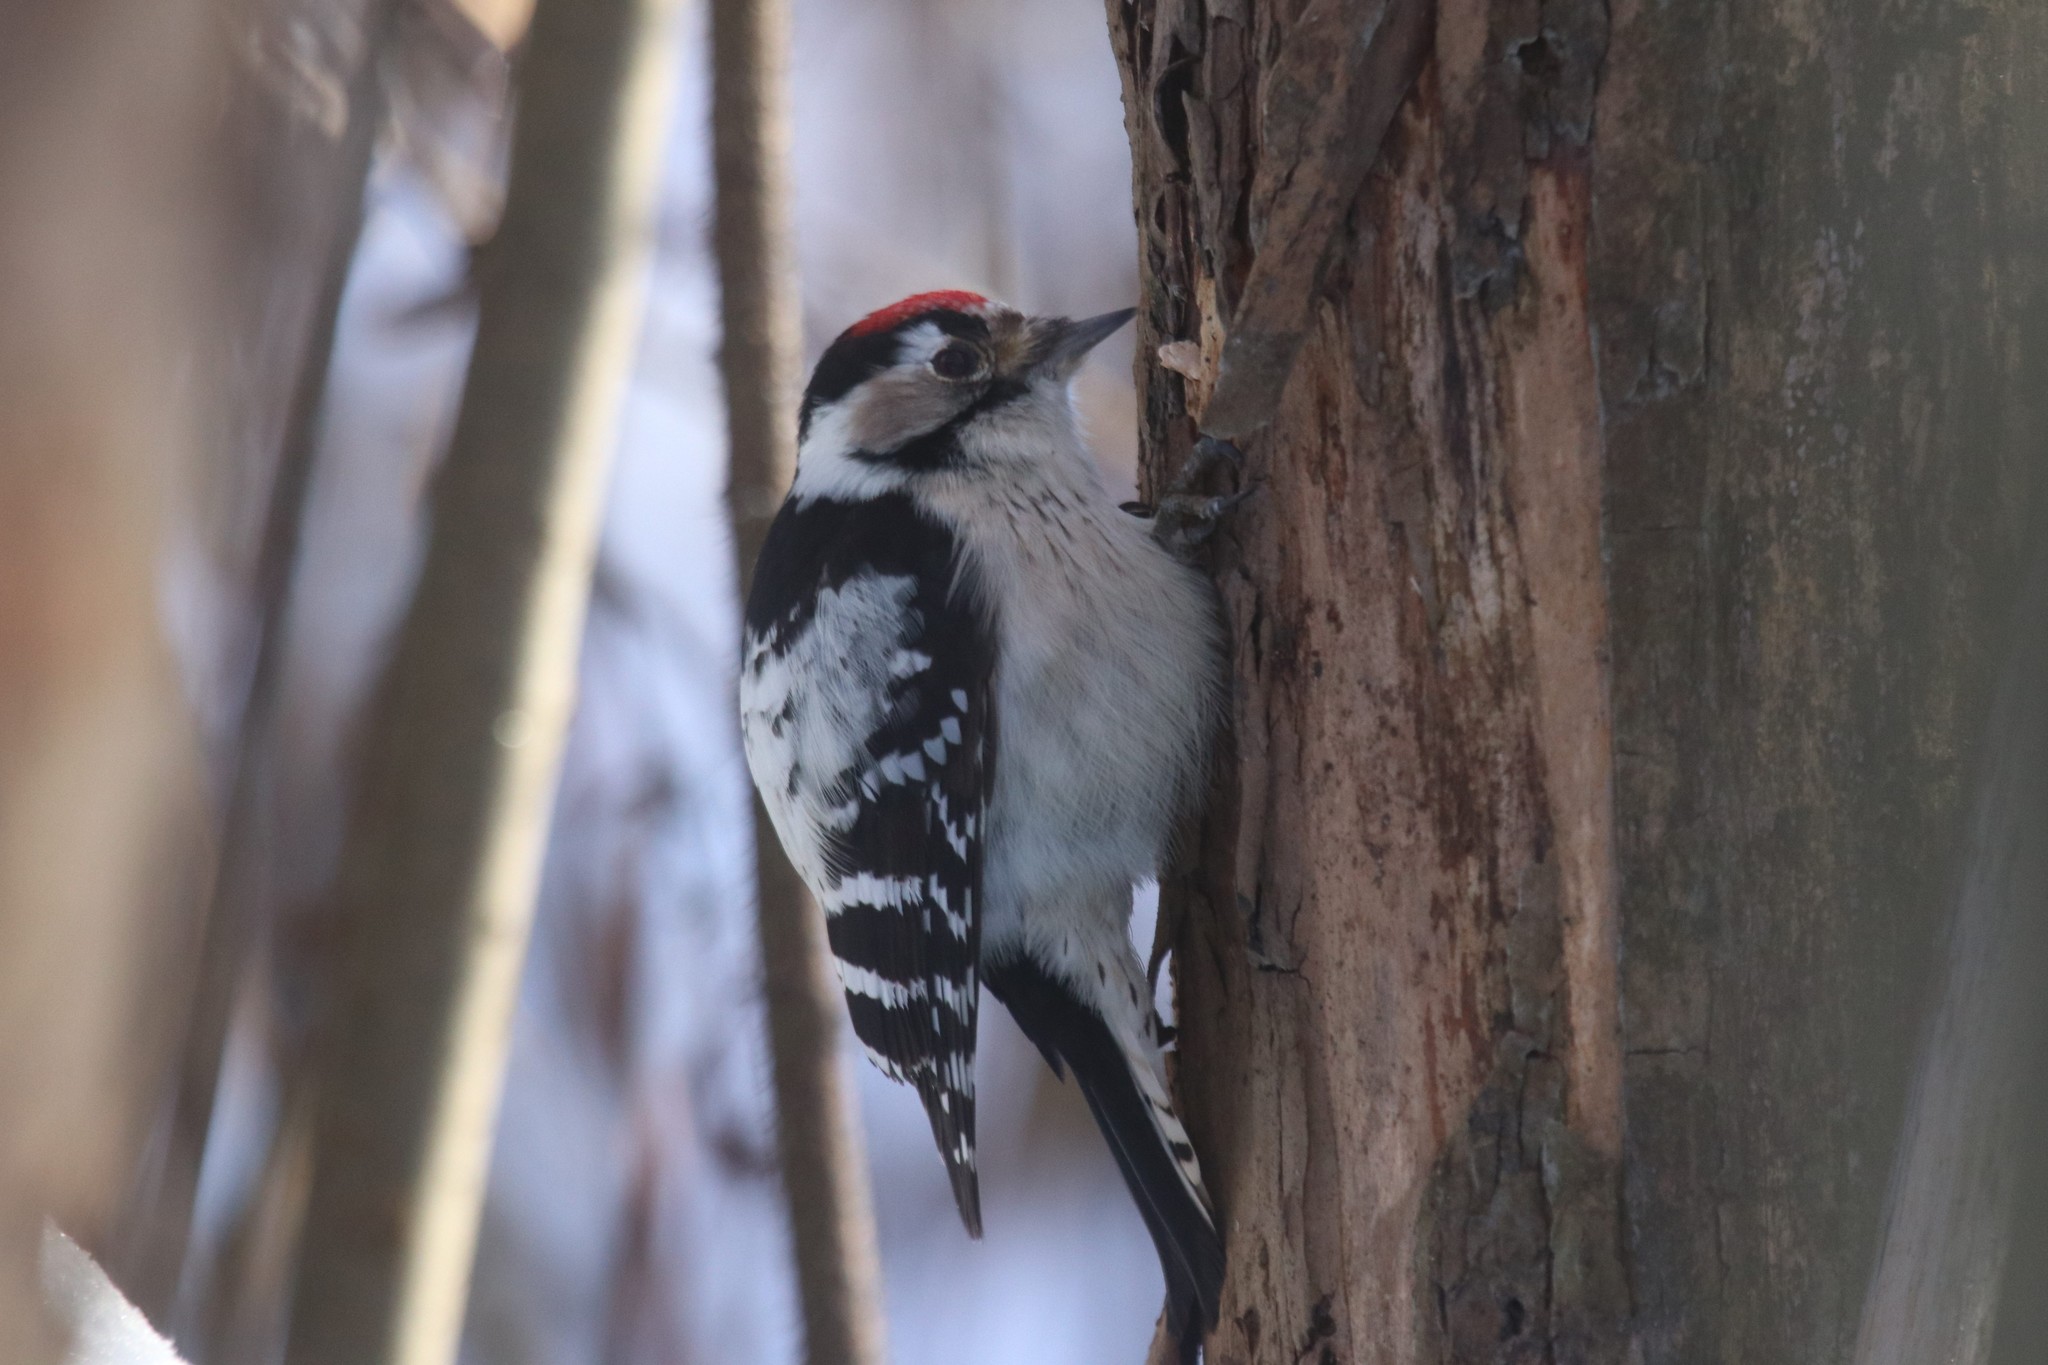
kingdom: Animalia
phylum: Chordata
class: Aves
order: Piciformes
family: Picidae
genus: Dryobates
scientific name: Dryobates minor
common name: Lesser spotted woodpecker
